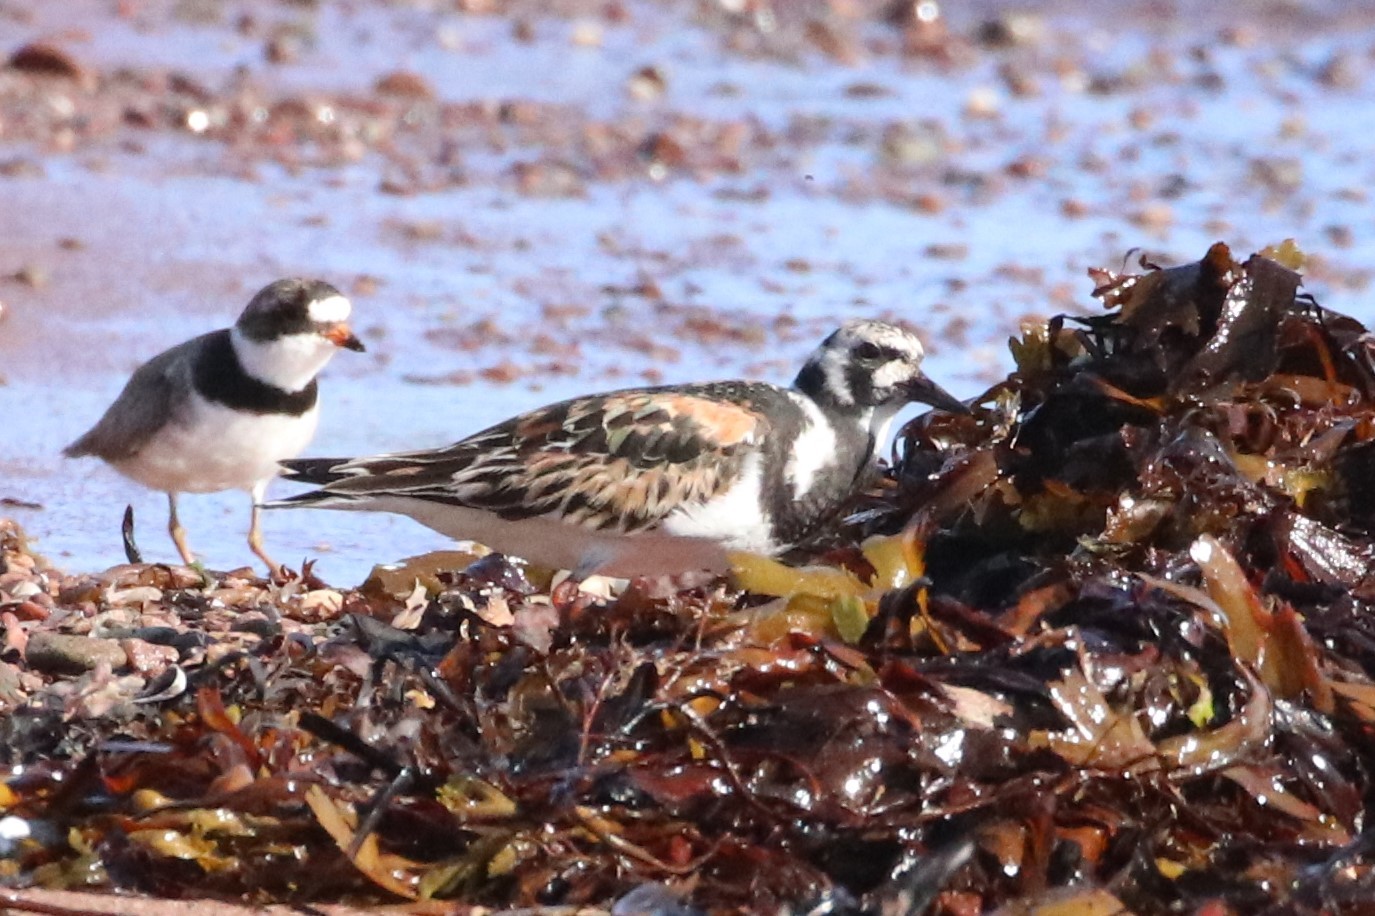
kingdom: Animalia
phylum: Chordata
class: Aves
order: Charadriiformes
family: Scolopacidae
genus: Arenaria
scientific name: Arenaria interpres
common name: Ruddy turnstone
